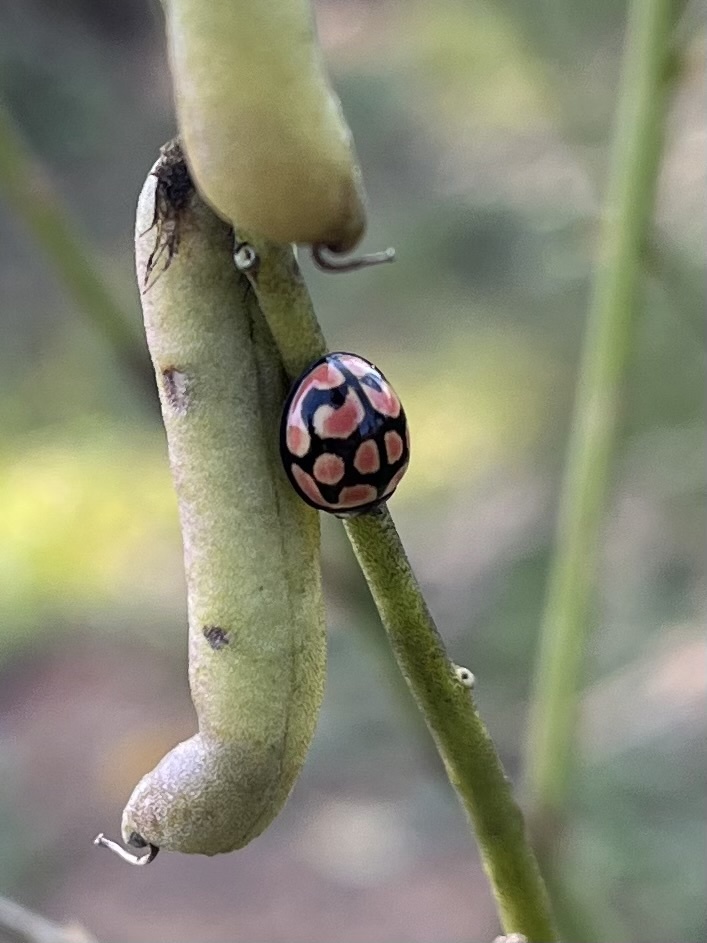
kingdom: Animalia
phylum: Arthropoda
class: Insecta
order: Coleoptera
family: Coccinellidae
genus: Cheilomenes
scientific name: Cheilomenes lunata
